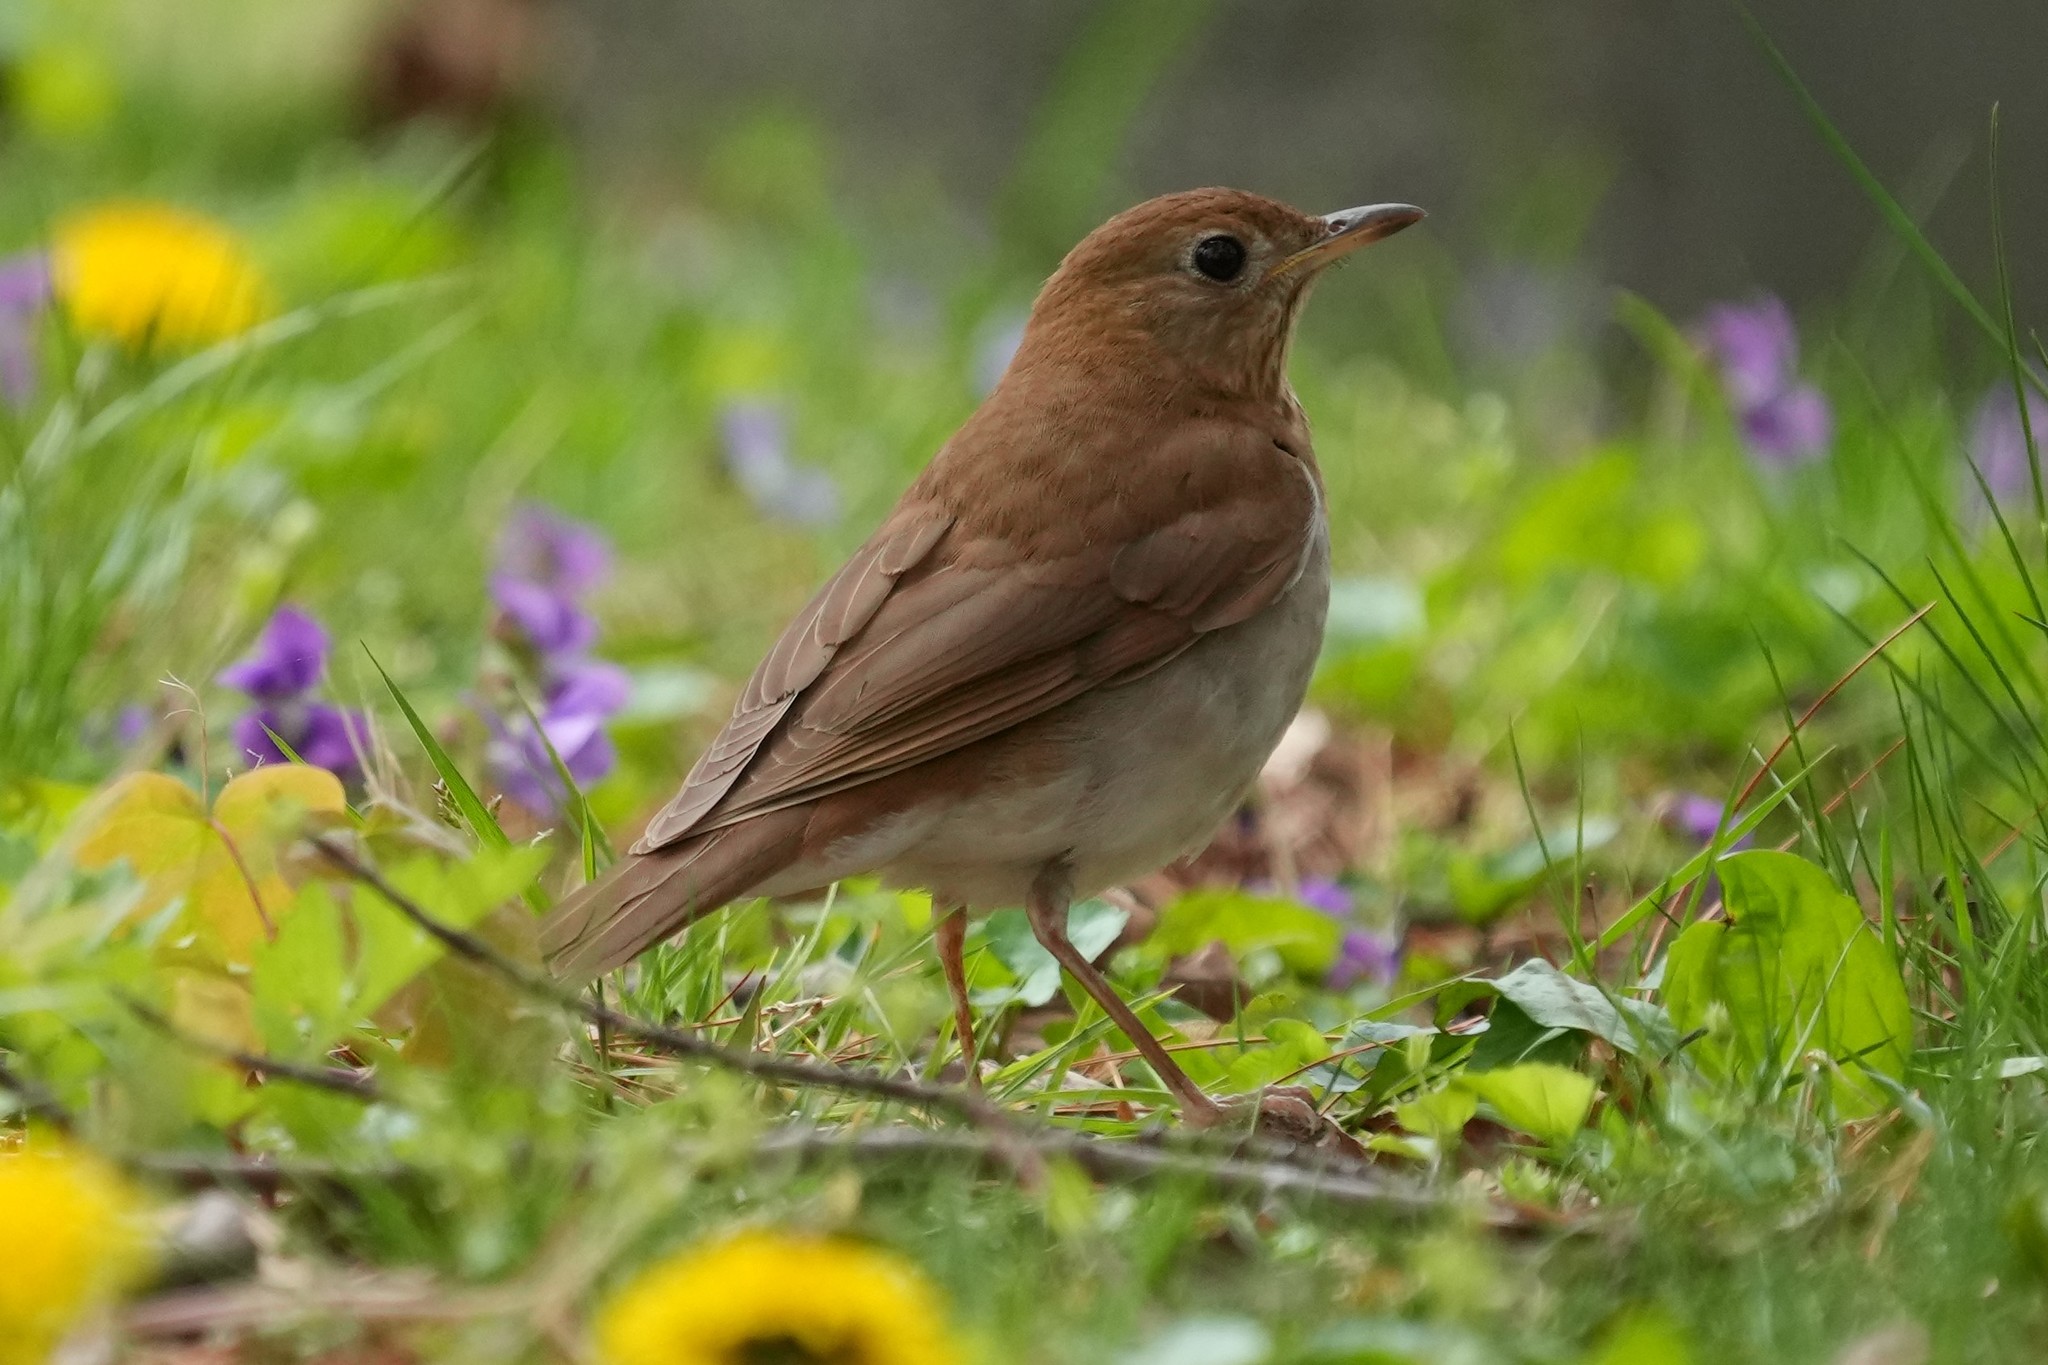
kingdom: Animalia
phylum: Chordata
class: Aves
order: Passeriformes
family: Turdidae
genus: Catharus
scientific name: Catharus fuscescens
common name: Veery
